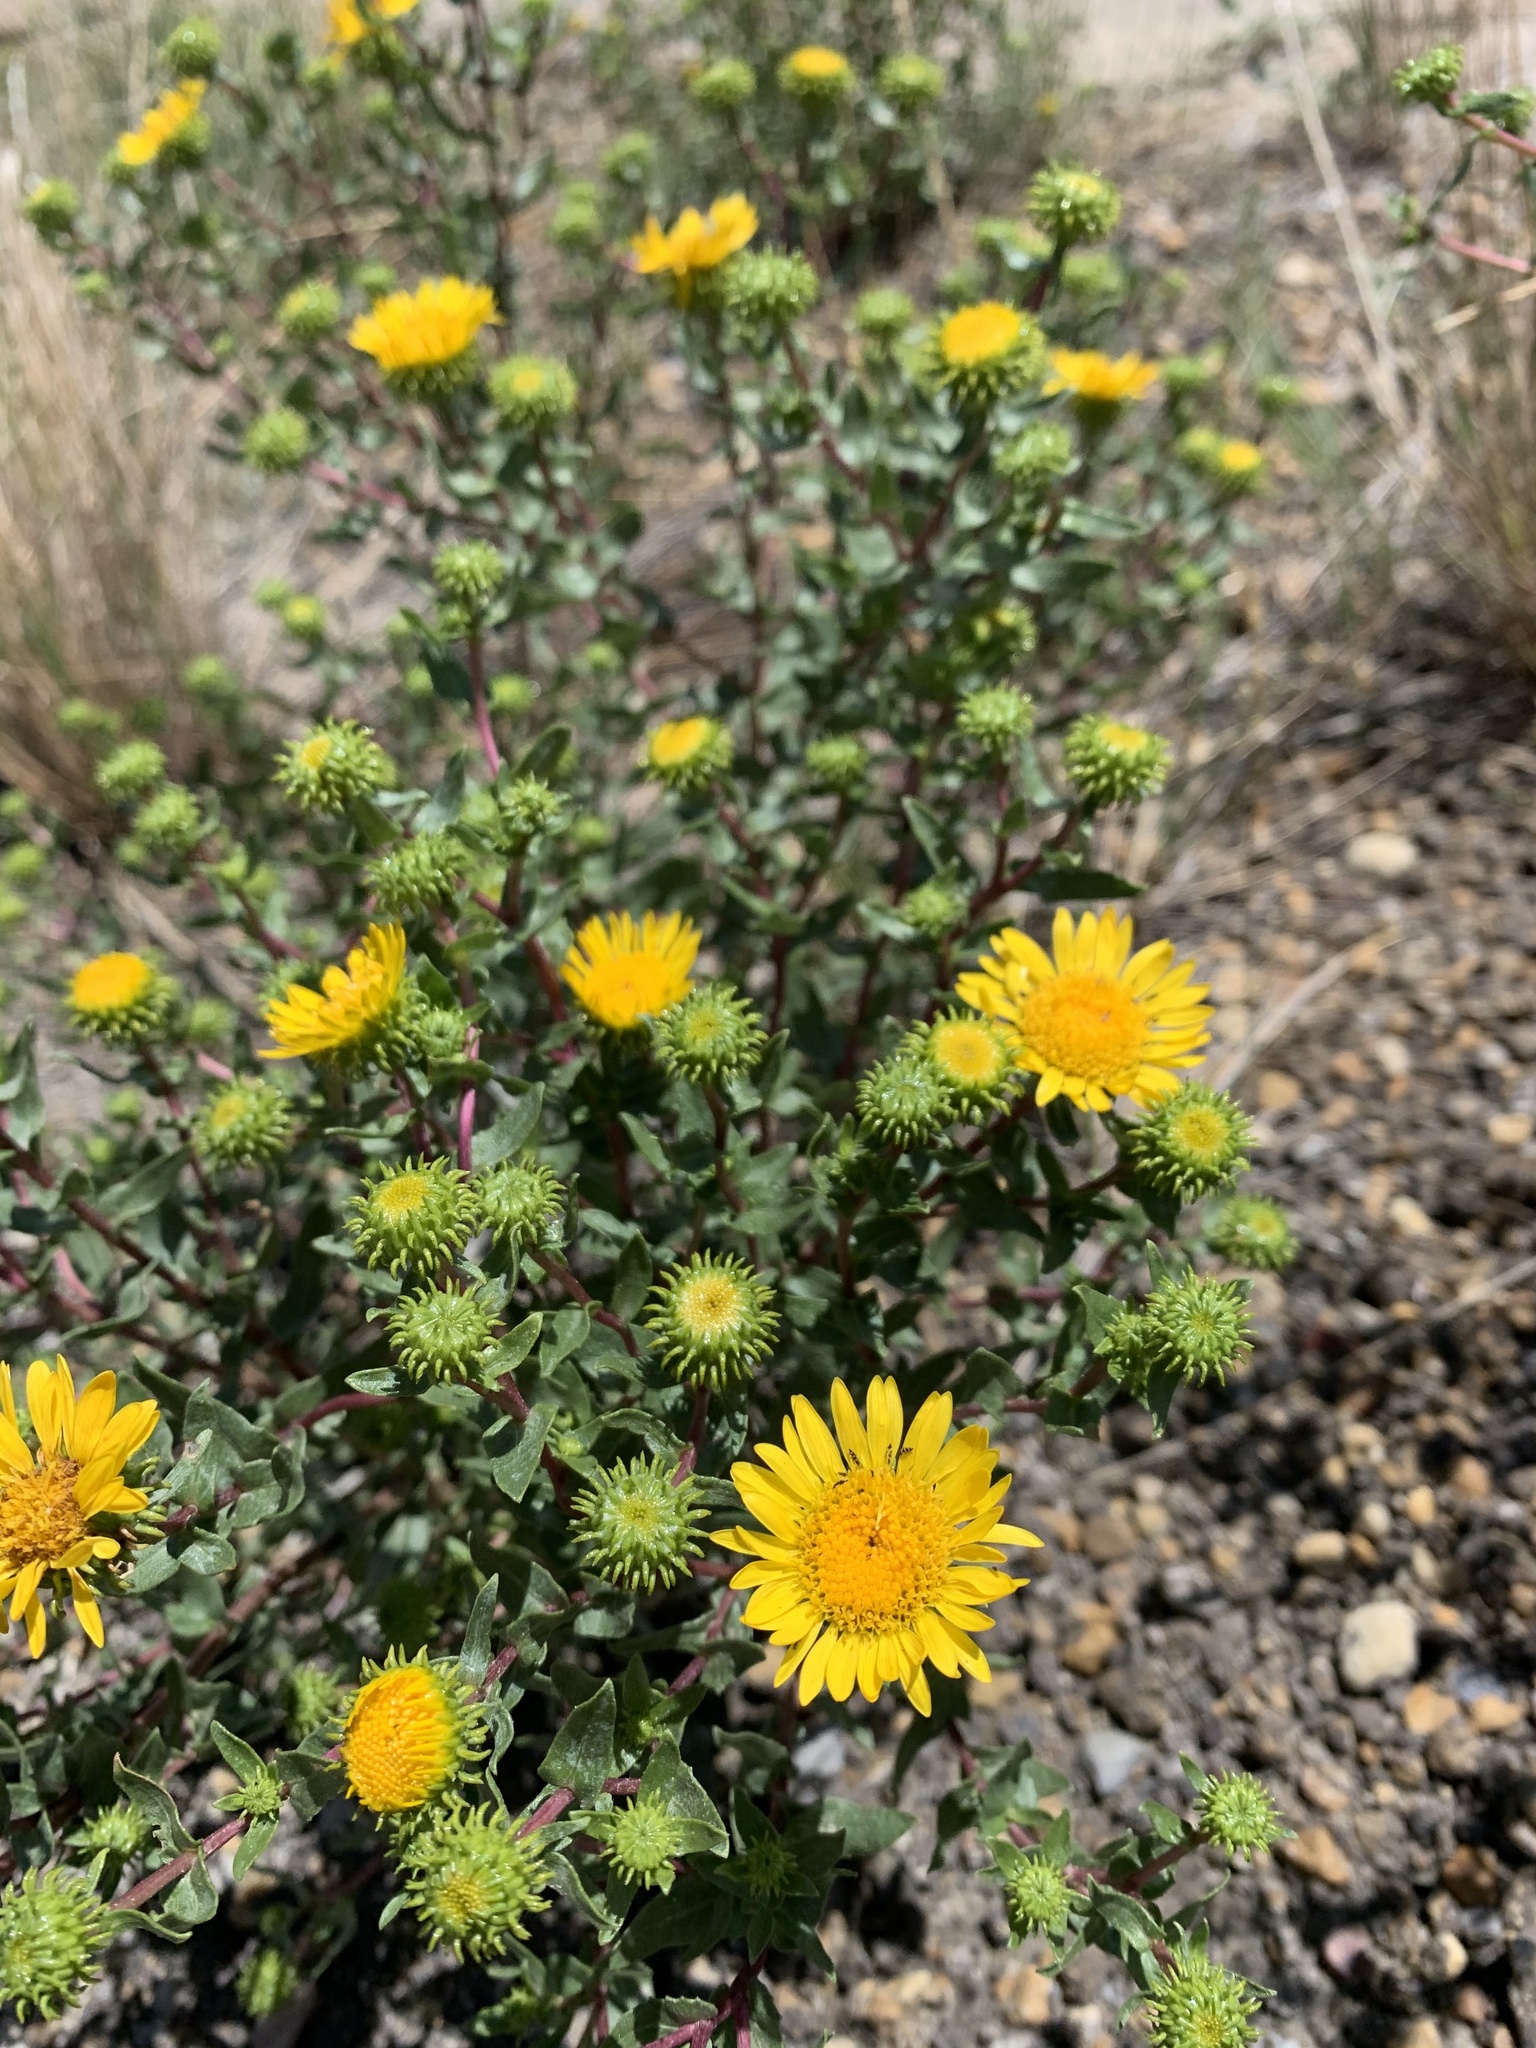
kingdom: Plantae
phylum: Tracheophyta
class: Magnoliopsida
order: Asterales
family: Asteraceae
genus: Grindelia
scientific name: Grindelia squarrosa
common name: Curly-cup gumweed
